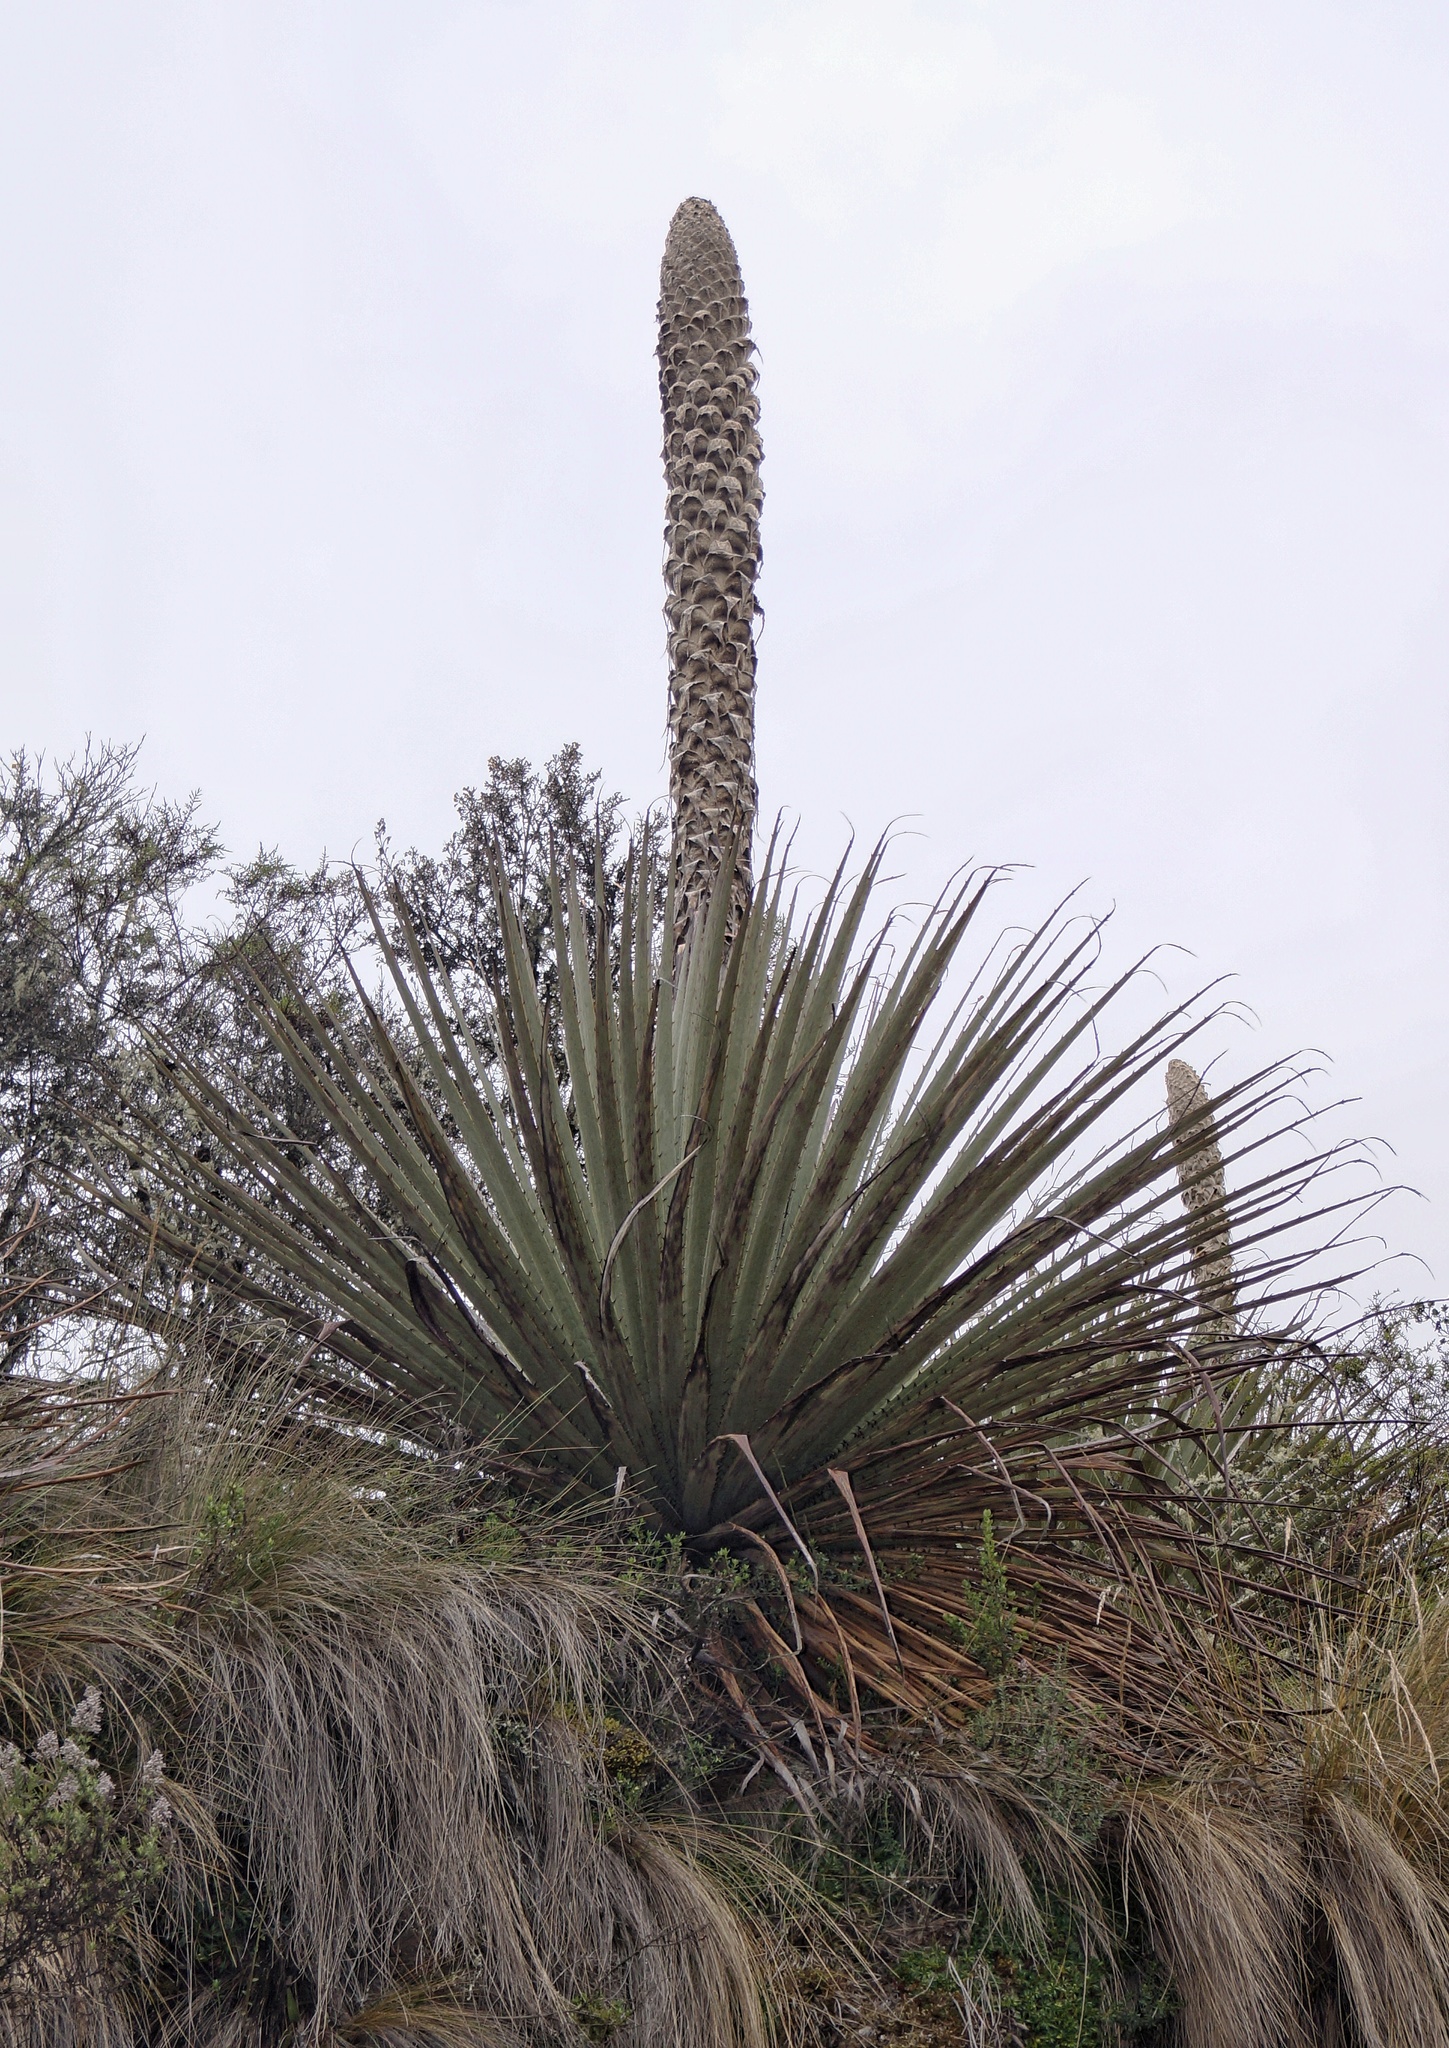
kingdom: Plantae
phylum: Tracheophyta
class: Liliopsida
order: Poales
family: Bromeliaceae
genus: Puya
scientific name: Puya hamata
